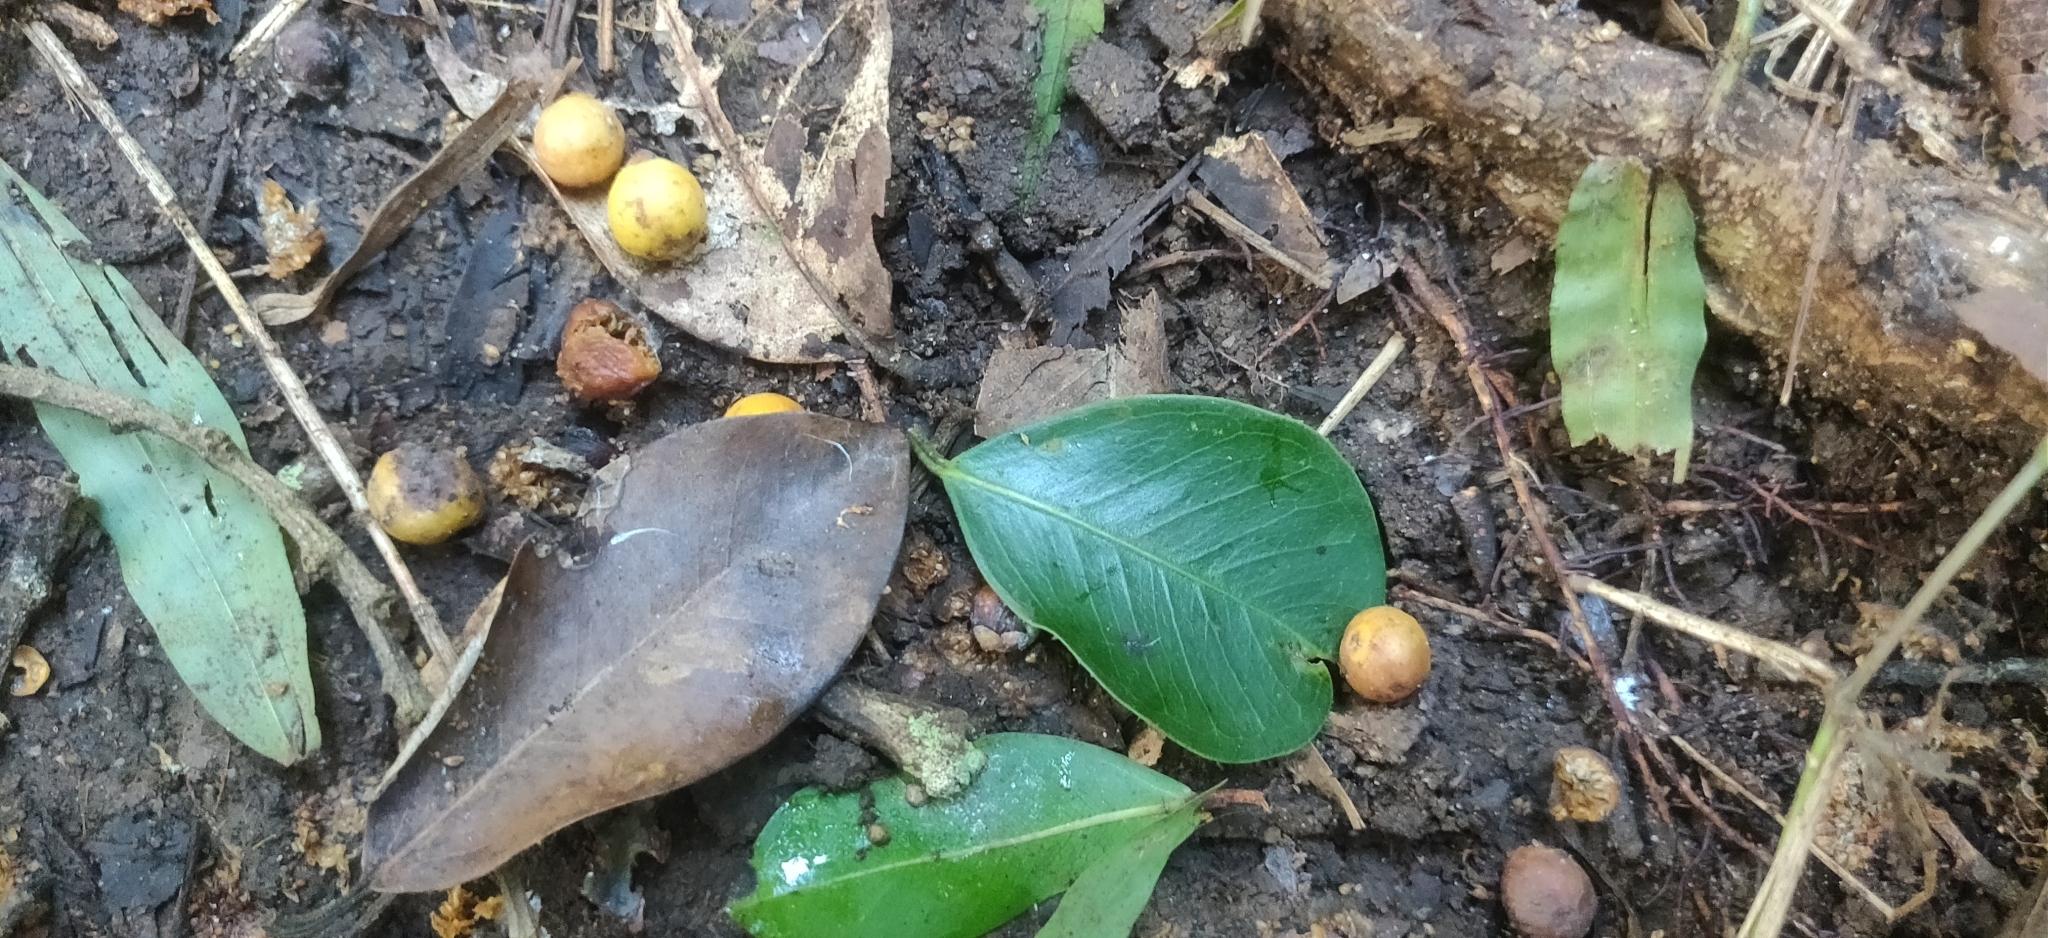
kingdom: Plantae
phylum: Tracheophyta
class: Magnoliopsida
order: Rosales
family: Moraceae
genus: Ficus
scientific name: Ficus microcarpa
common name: Chinese banyan
